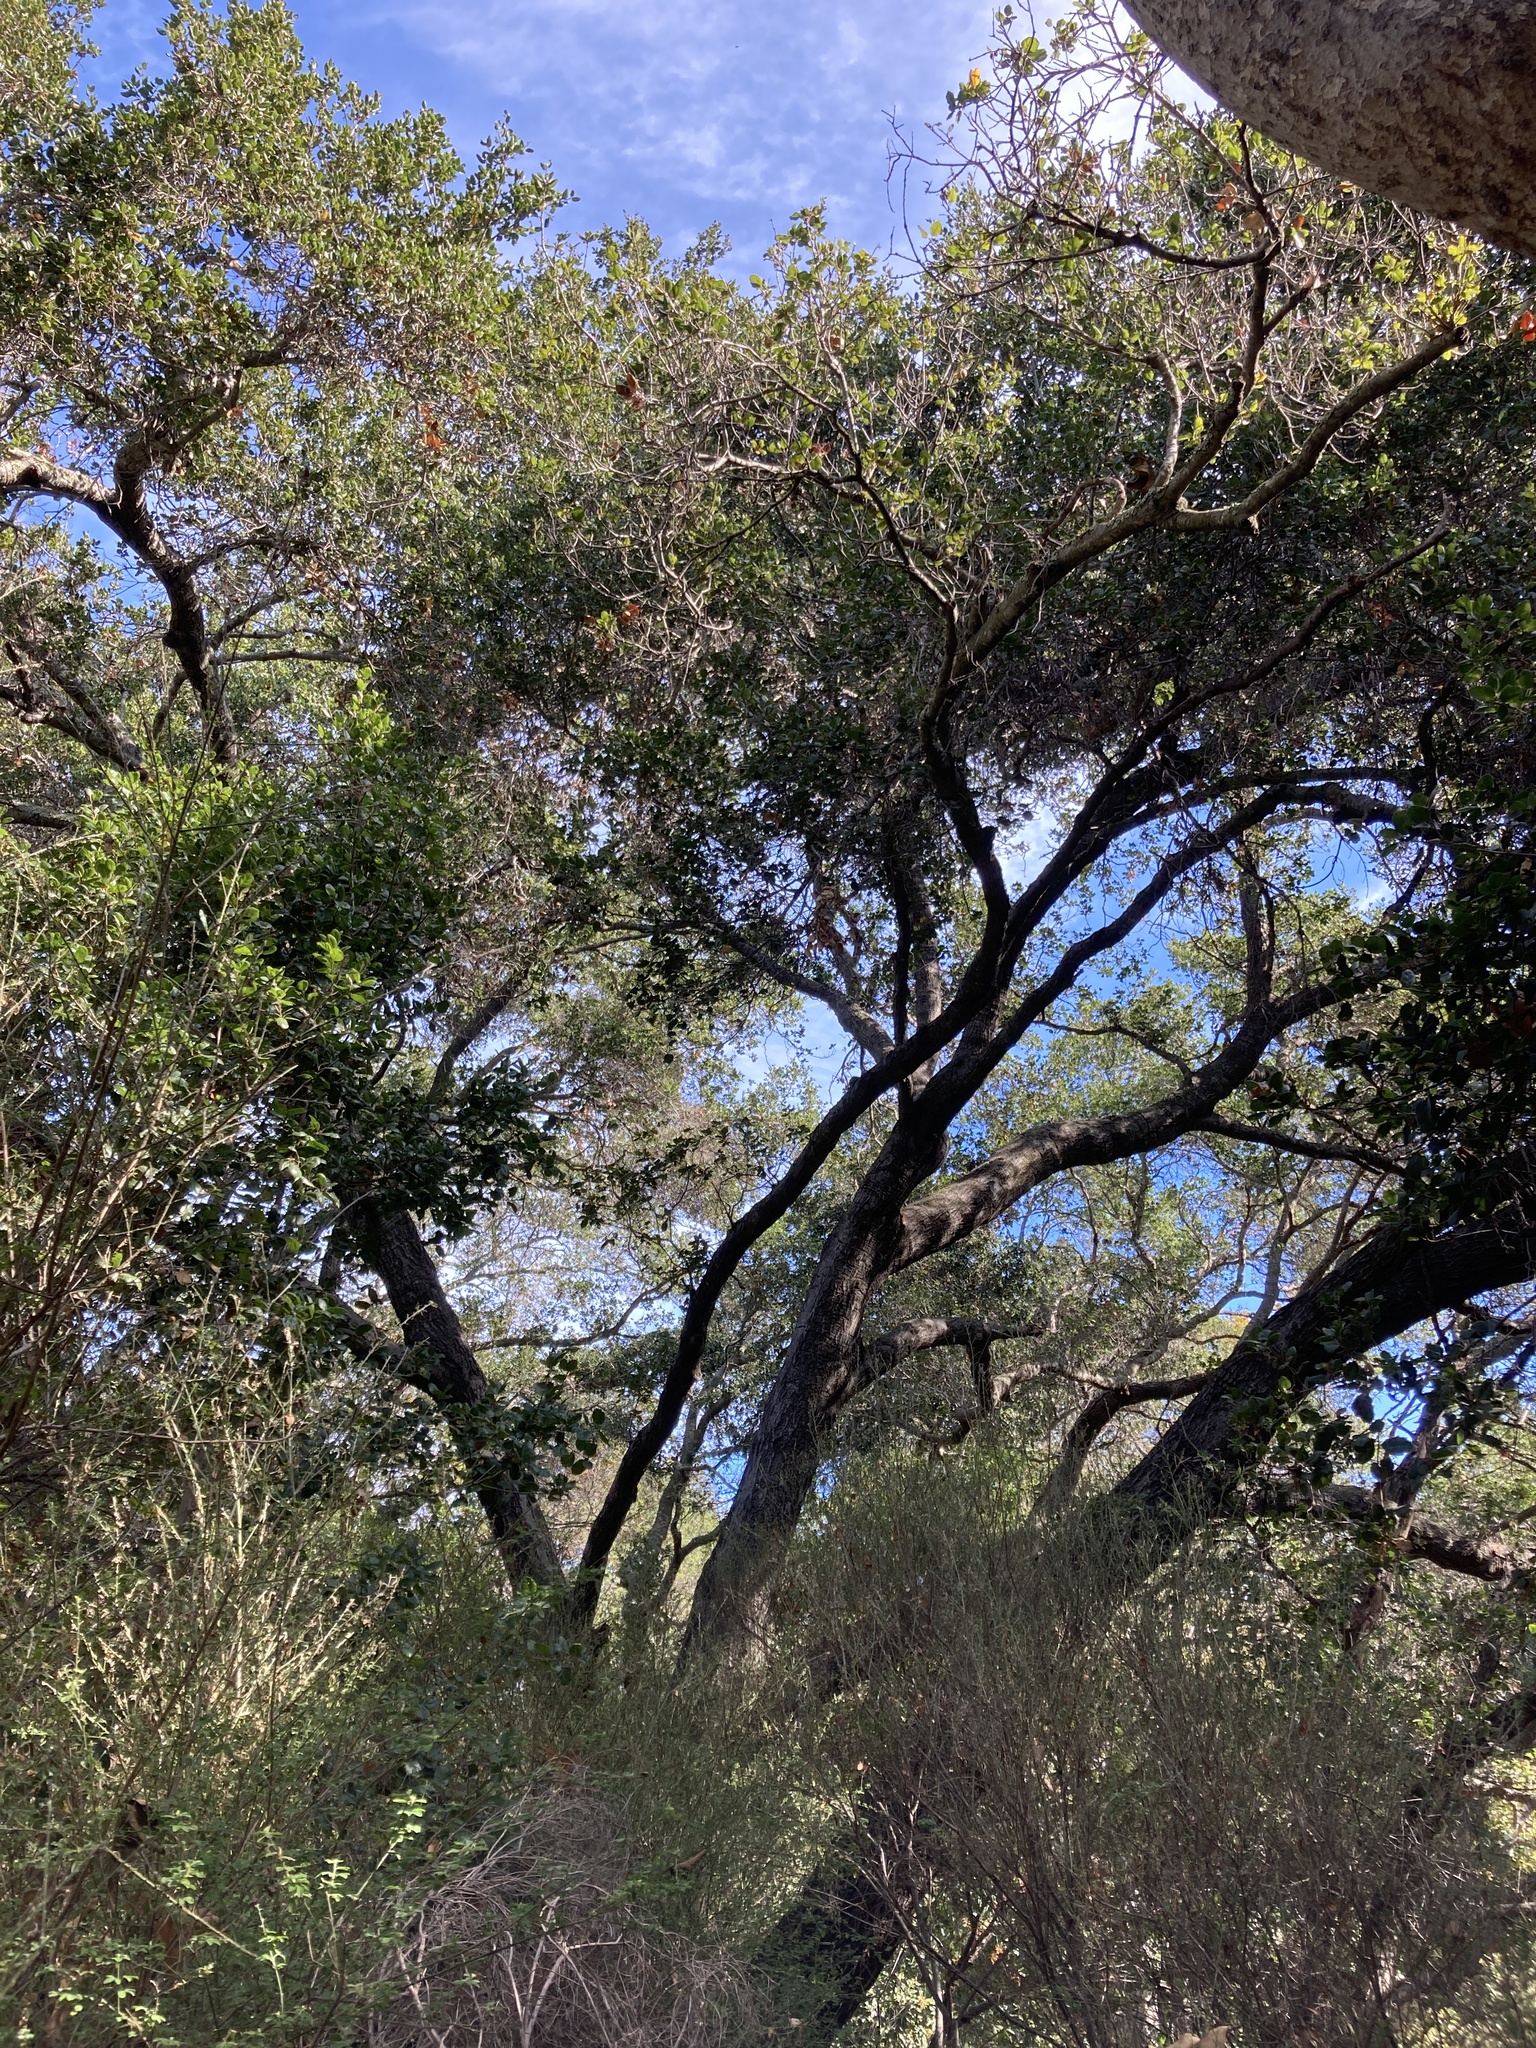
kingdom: Plantae
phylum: Tracheophyta
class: Magnoliopsida
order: Fagales
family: Fagaceae
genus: Quercus
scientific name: Quercus agrifolia
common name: California live oak
